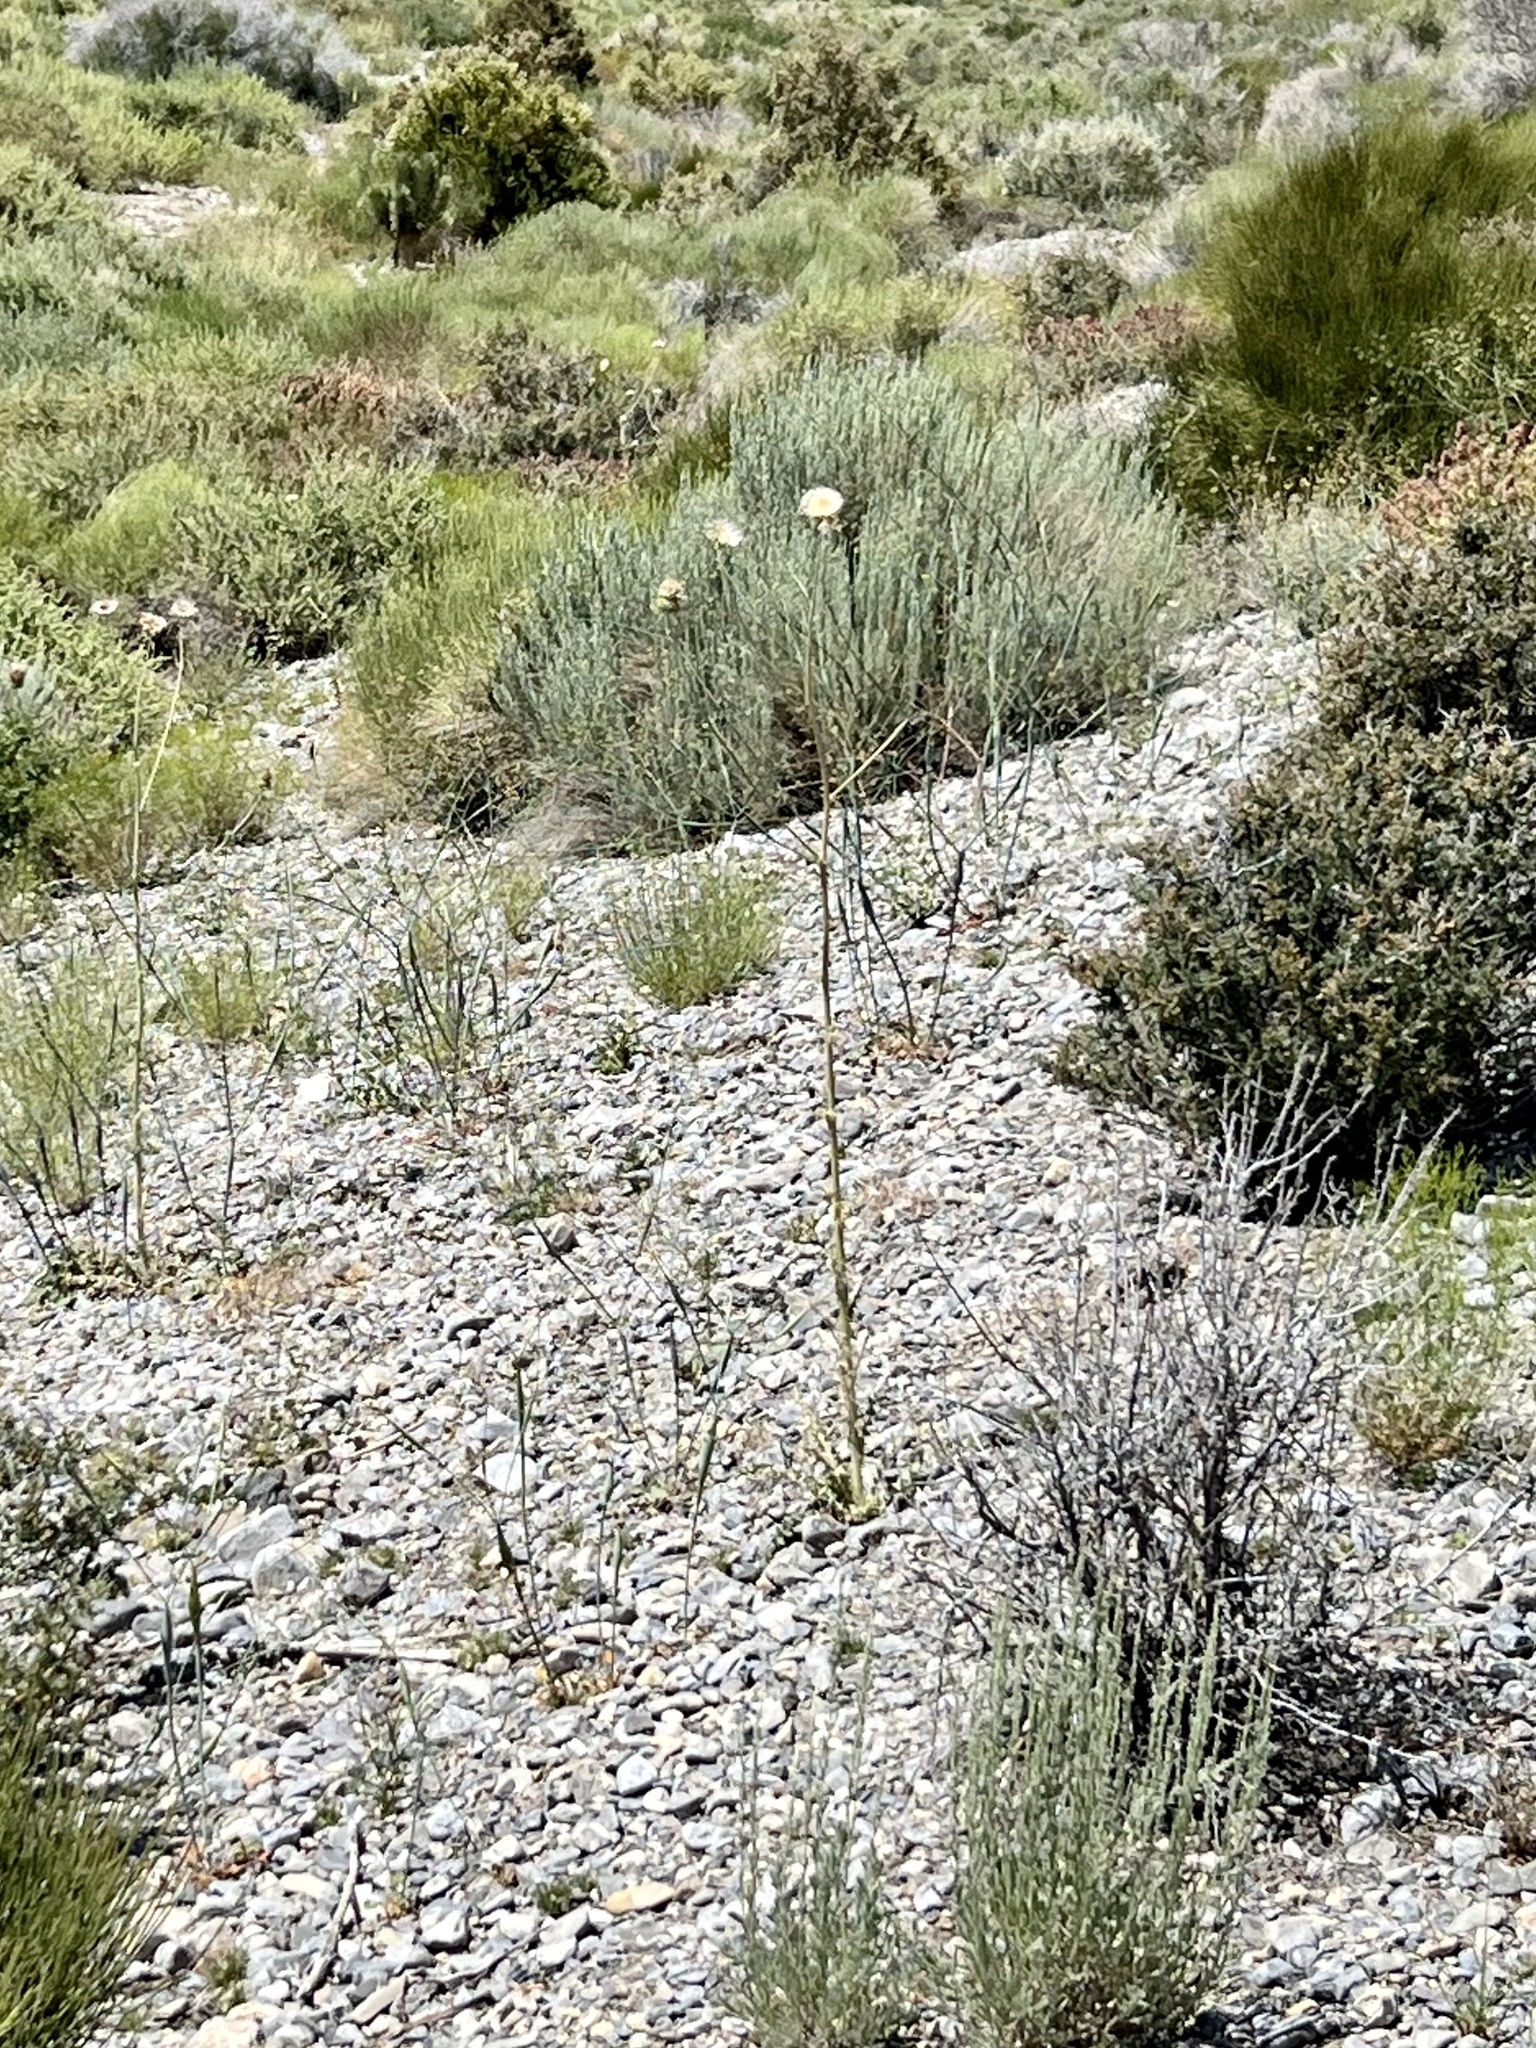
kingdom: Plantae
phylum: Tracheophyta
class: Magnoliopsida
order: Asterales
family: Asteraceae
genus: Cirsium
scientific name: Cirsium neomexicanum
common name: New mexico thistle
